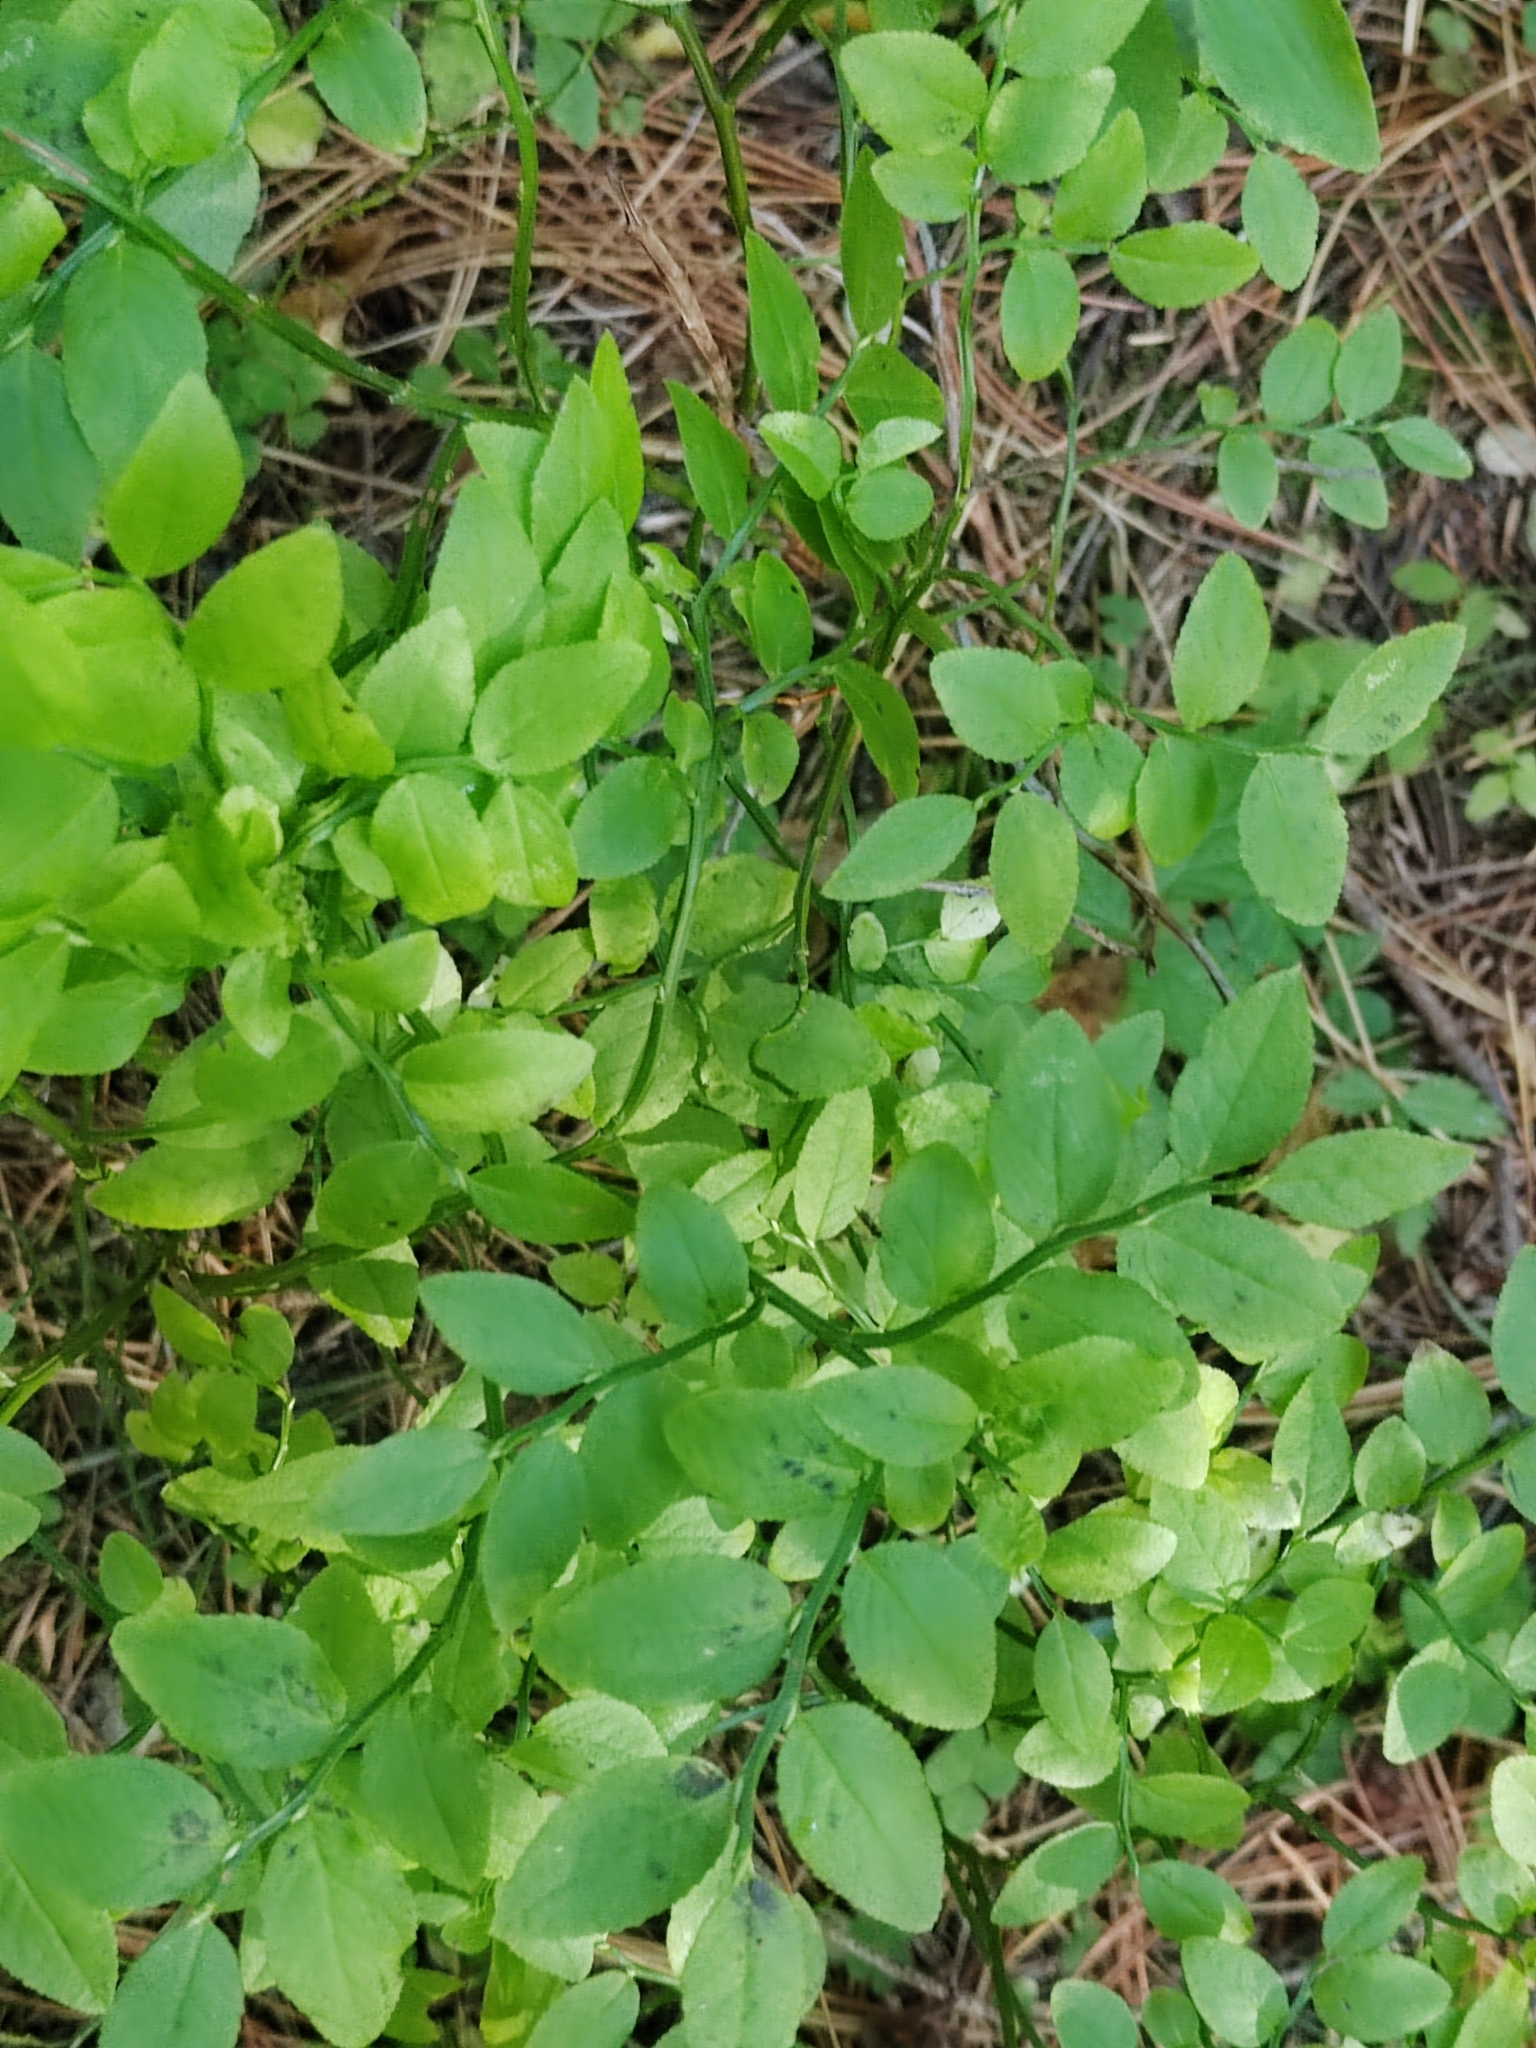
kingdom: Plantae
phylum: Tracheophyta
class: Magnoliopsida
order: Ericales
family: Ericaceae
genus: Vaccinium
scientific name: Vaccinium myrtillus
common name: Bilberry
